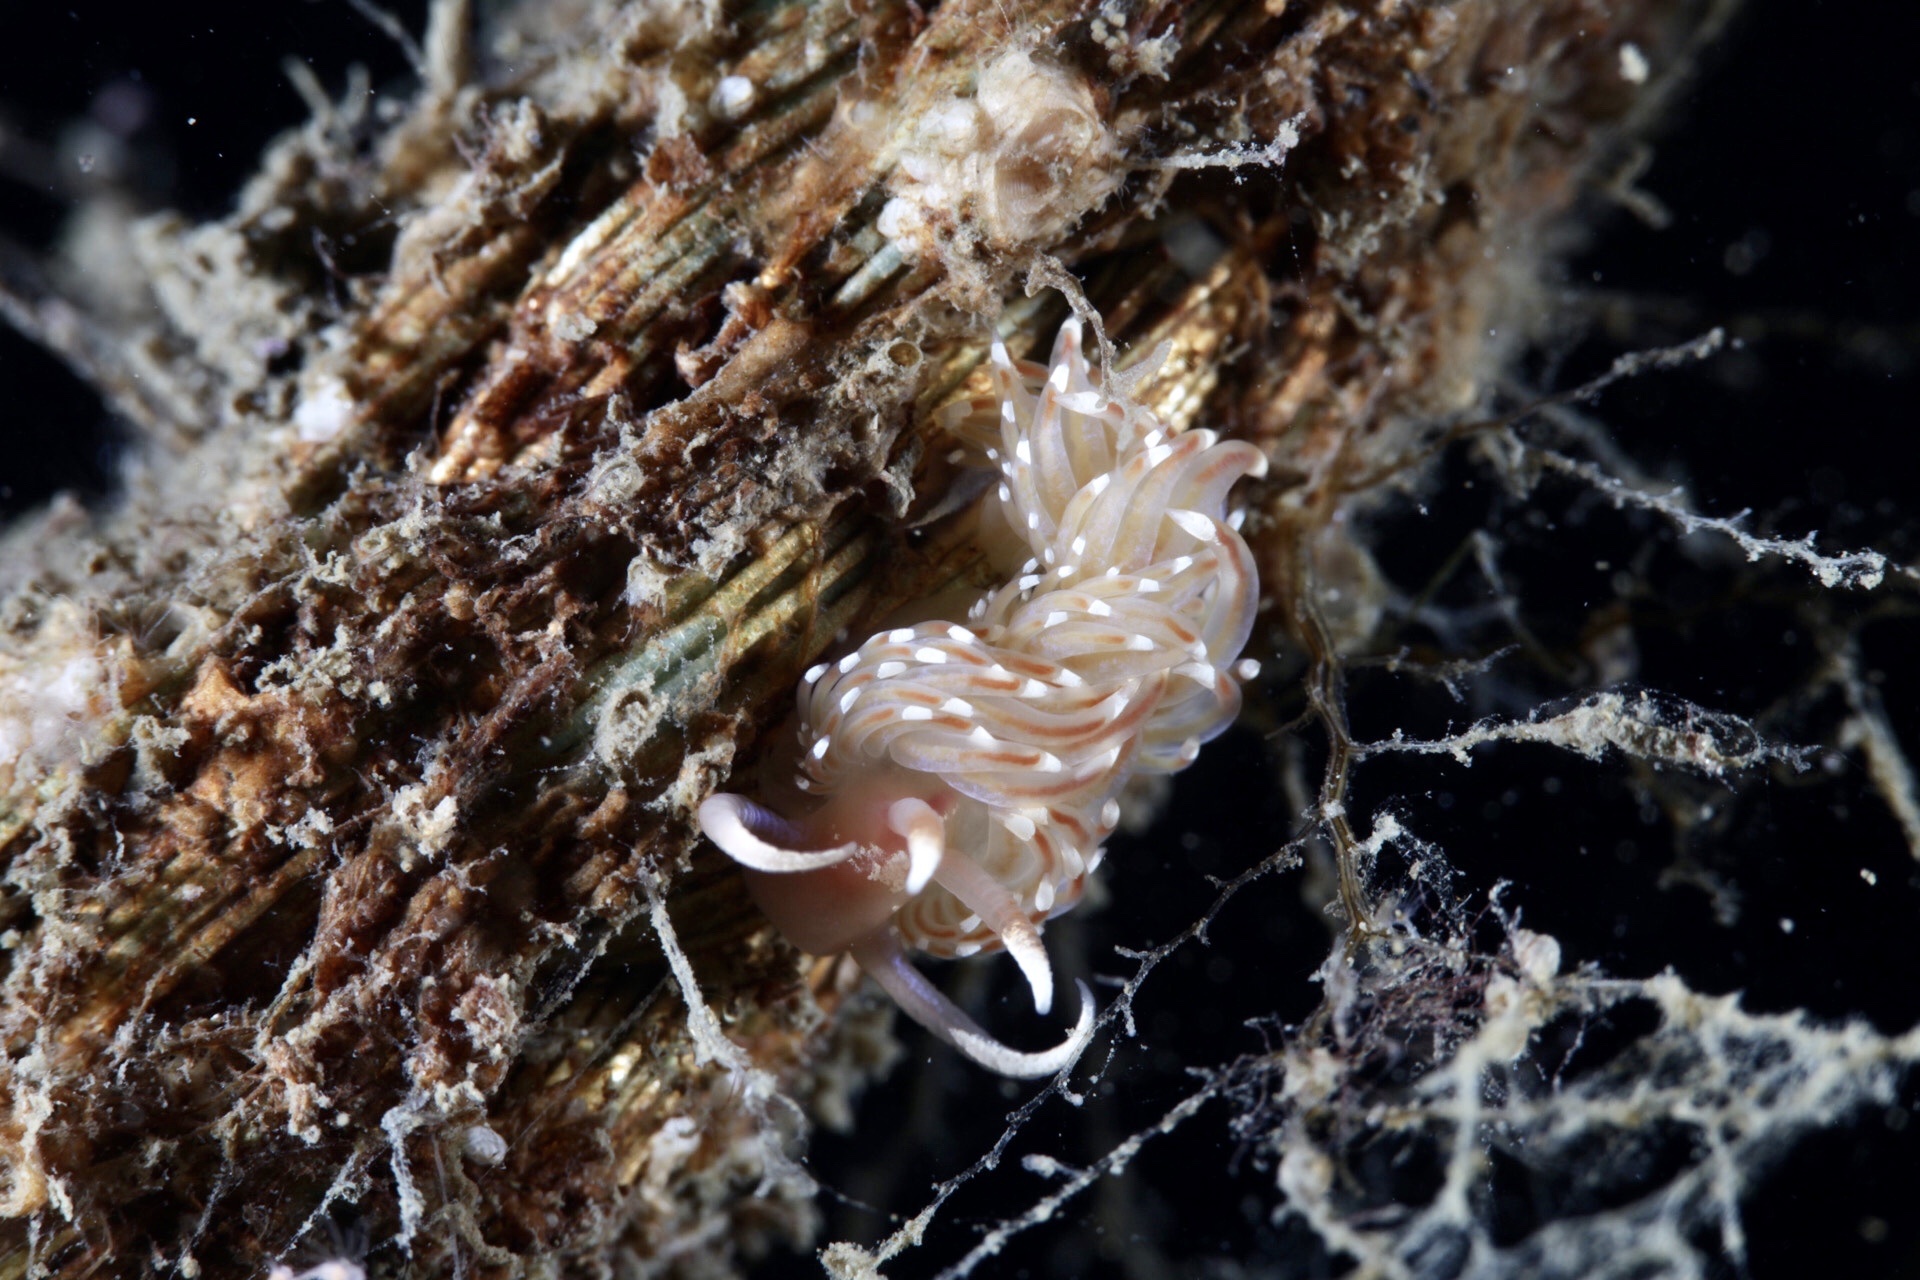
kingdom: Animalia
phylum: Mollusca
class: Gastropoda
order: Nudibranchia
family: Facelinidae
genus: Facelina
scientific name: Facelina bostoniensis
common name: Boston facelina
